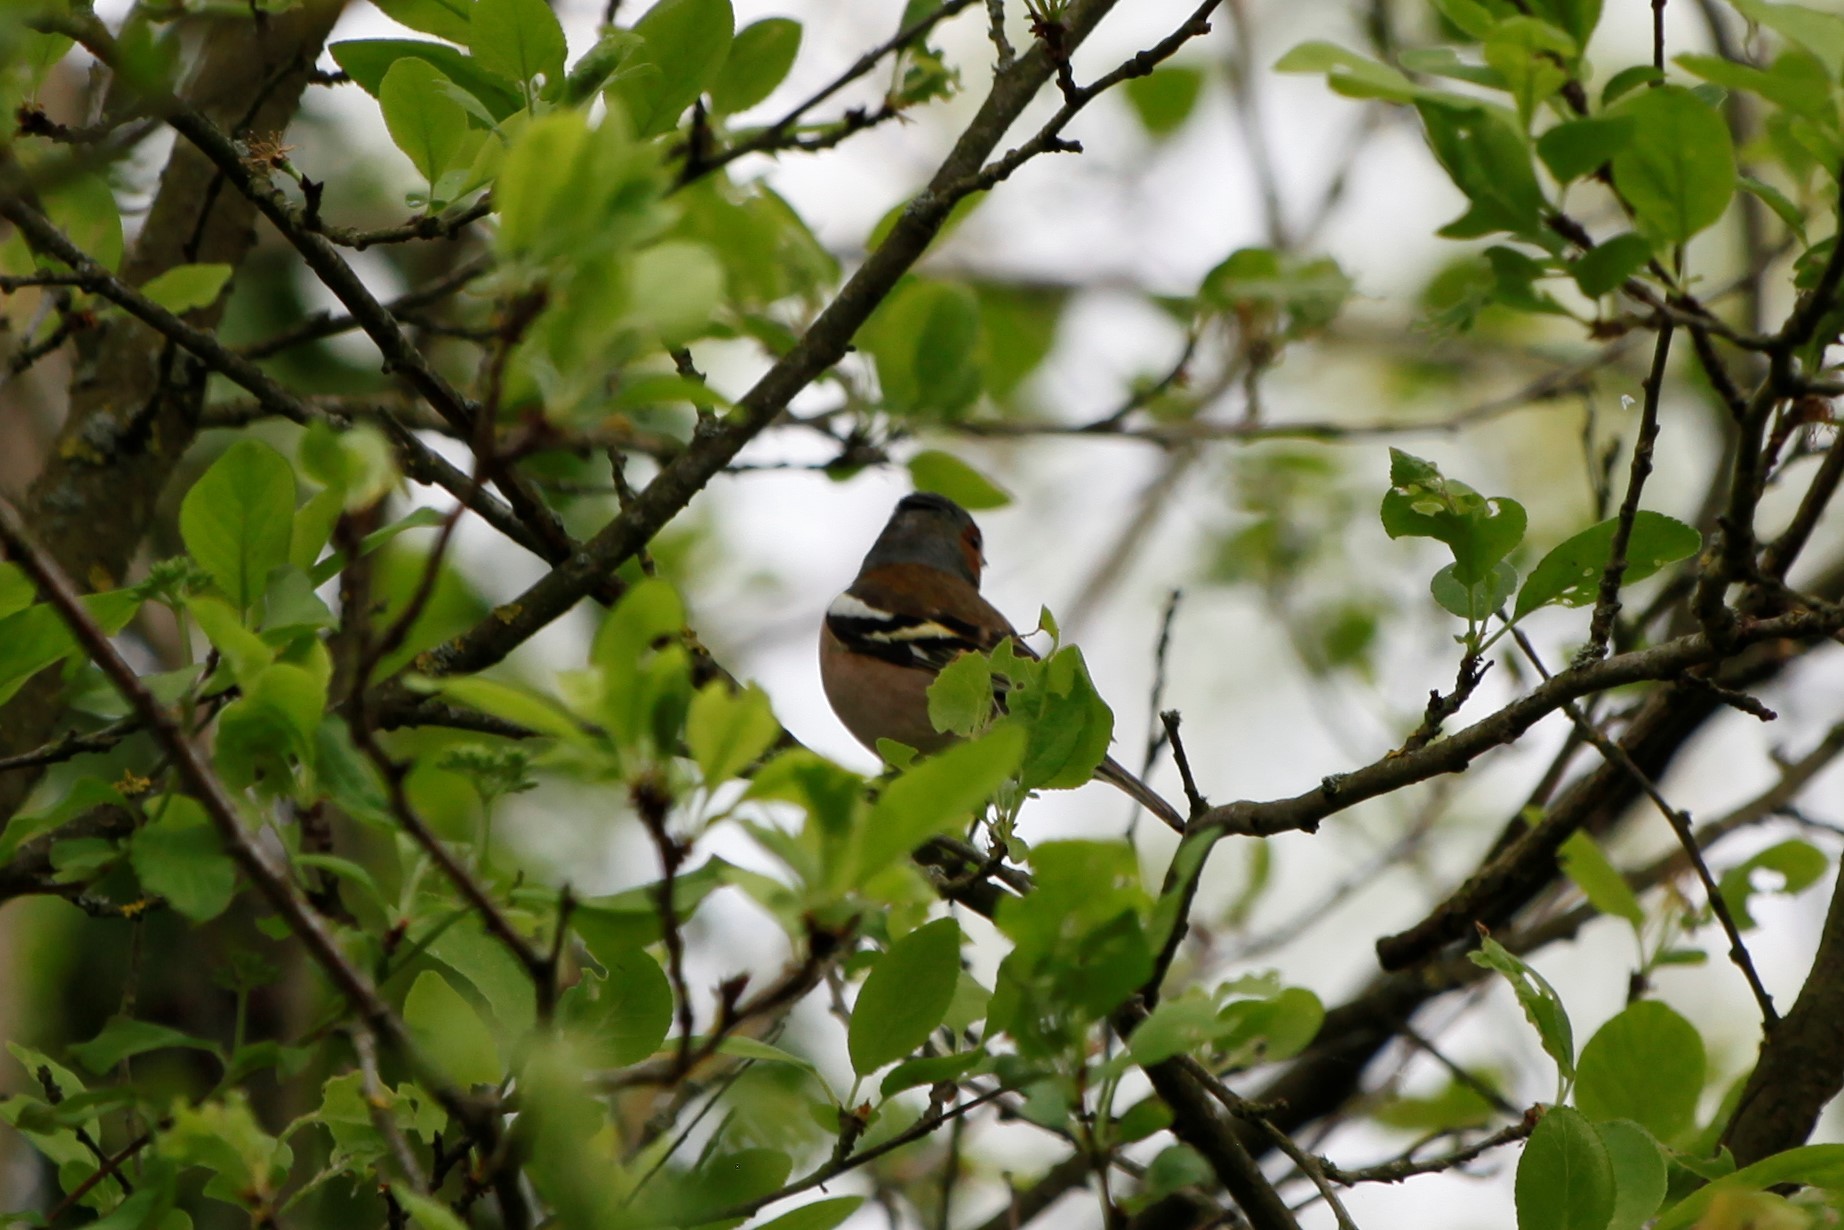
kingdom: Animalia
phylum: Chordata
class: Aves
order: Passeriformes
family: Fringillidae
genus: Fringilla
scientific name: Fringilla coelebs
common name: Common chaffinch
